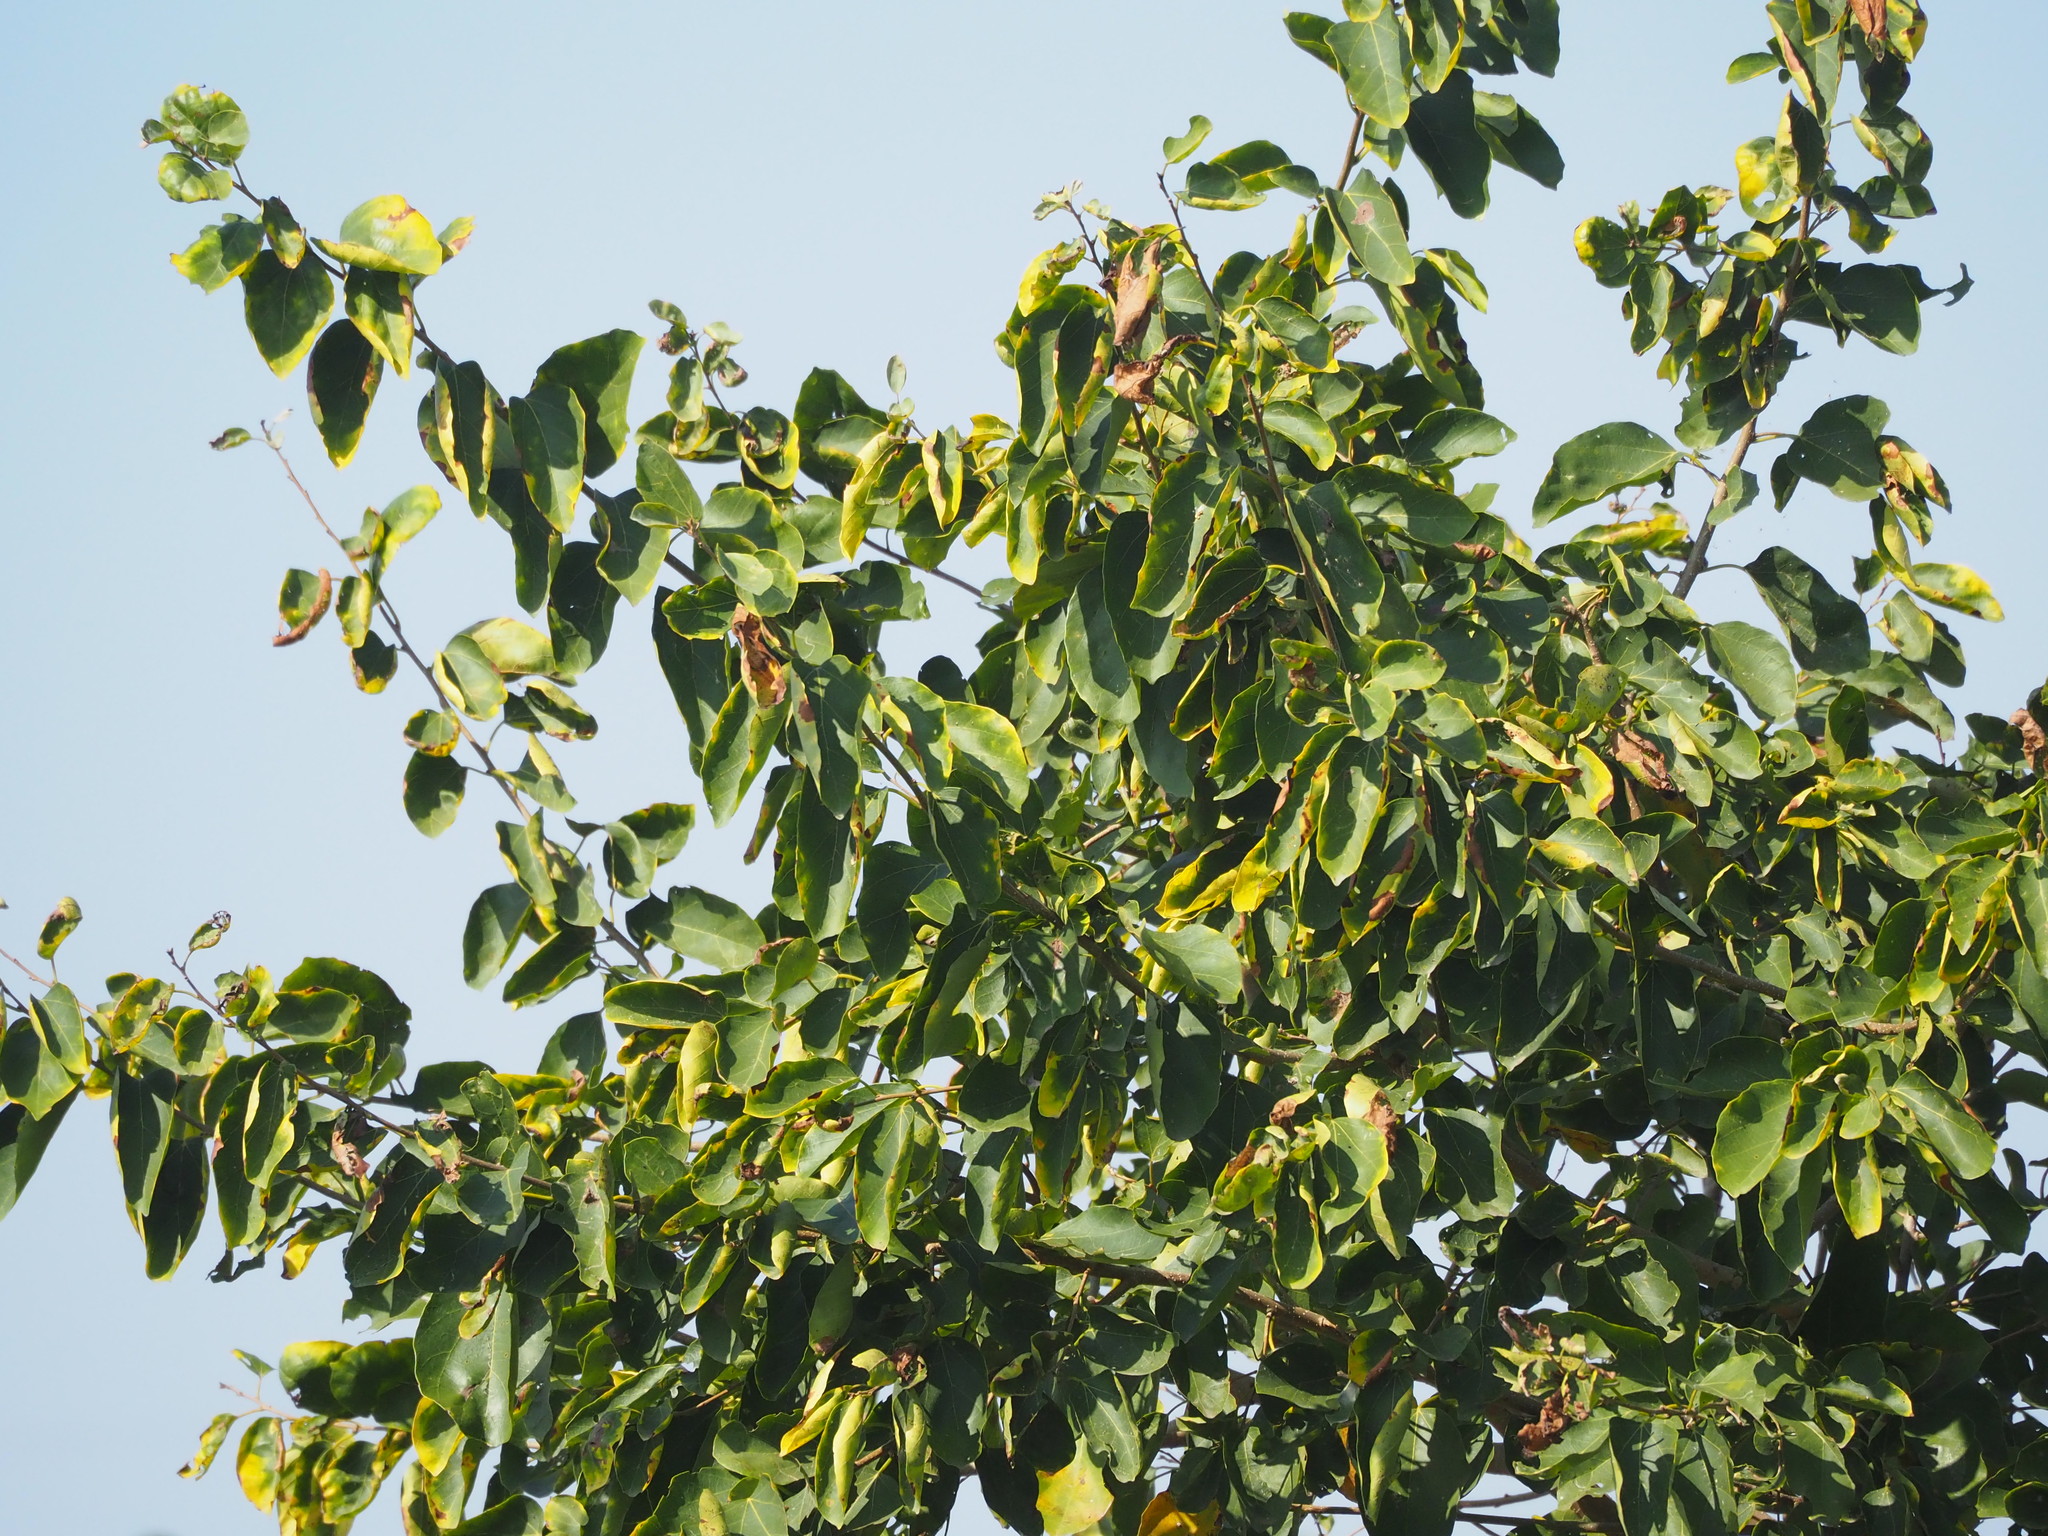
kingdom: Plantae
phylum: Tracheophyta
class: Magnoliopsida
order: Boraginales
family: Cordiaceae
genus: Cordia
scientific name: Cordia dichotoma
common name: Fragrant manjack
